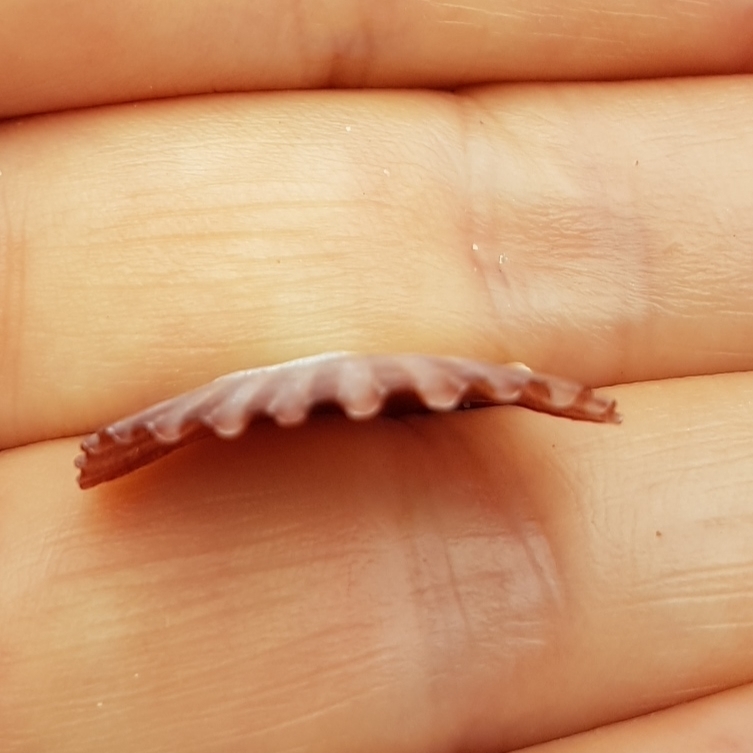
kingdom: Animalia
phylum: Mollusca
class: Bivalvia
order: Pectinida
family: Pectinidae
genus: Pecten
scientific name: Pecten jacobaeus
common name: St.james's scallop
